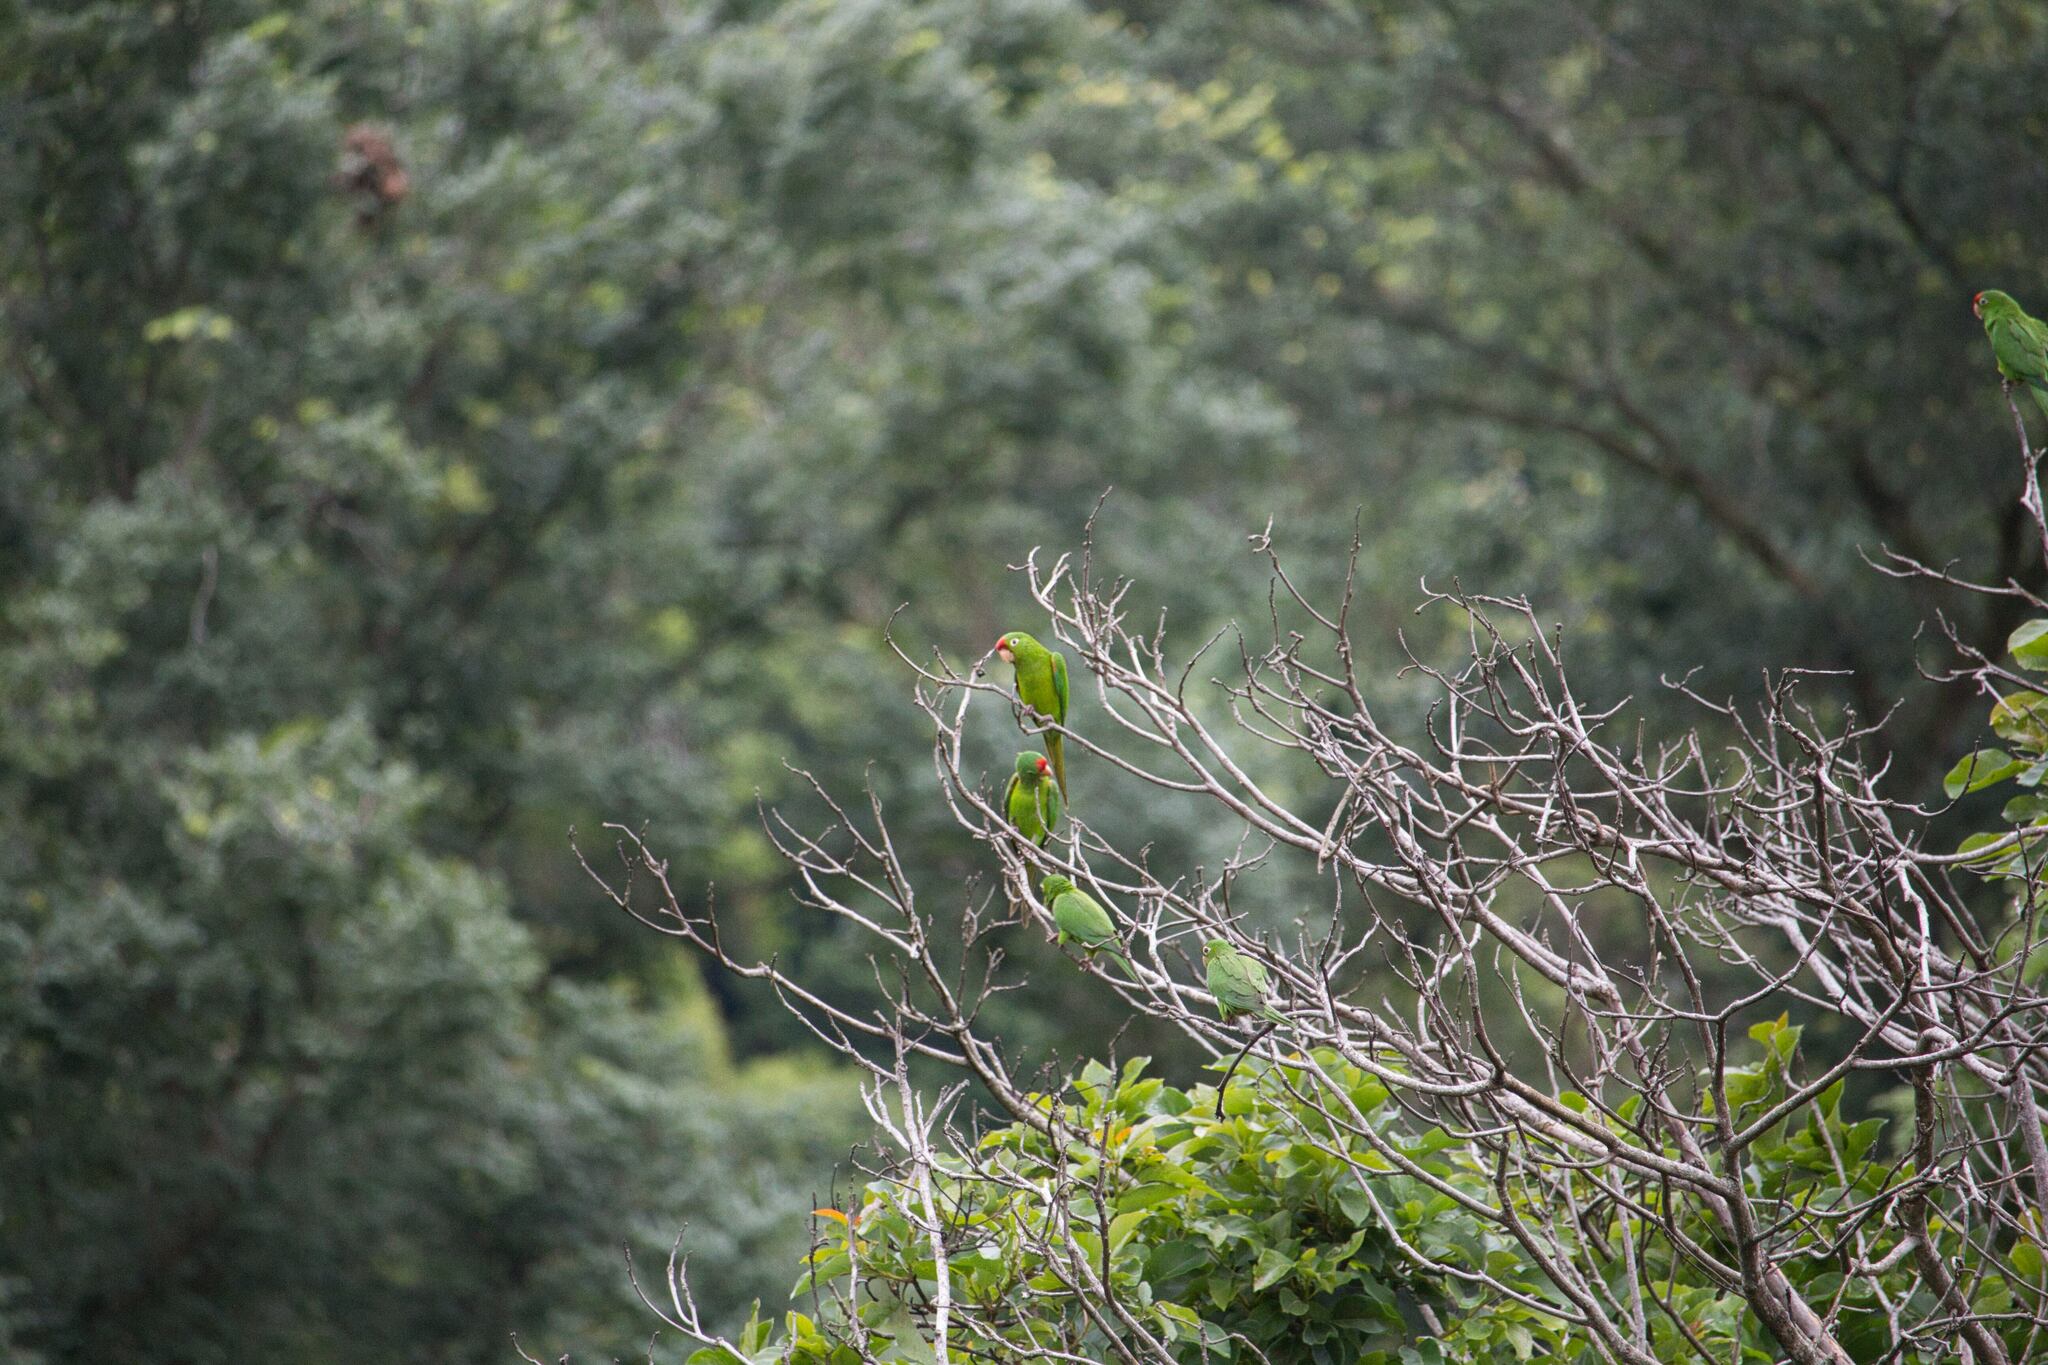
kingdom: Animalia
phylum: Chordata
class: Aves
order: Psittaciformes
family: Psittacidae
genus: Aratinga
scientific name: Aratinga finschi
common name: Crimson-fronted parakeet
